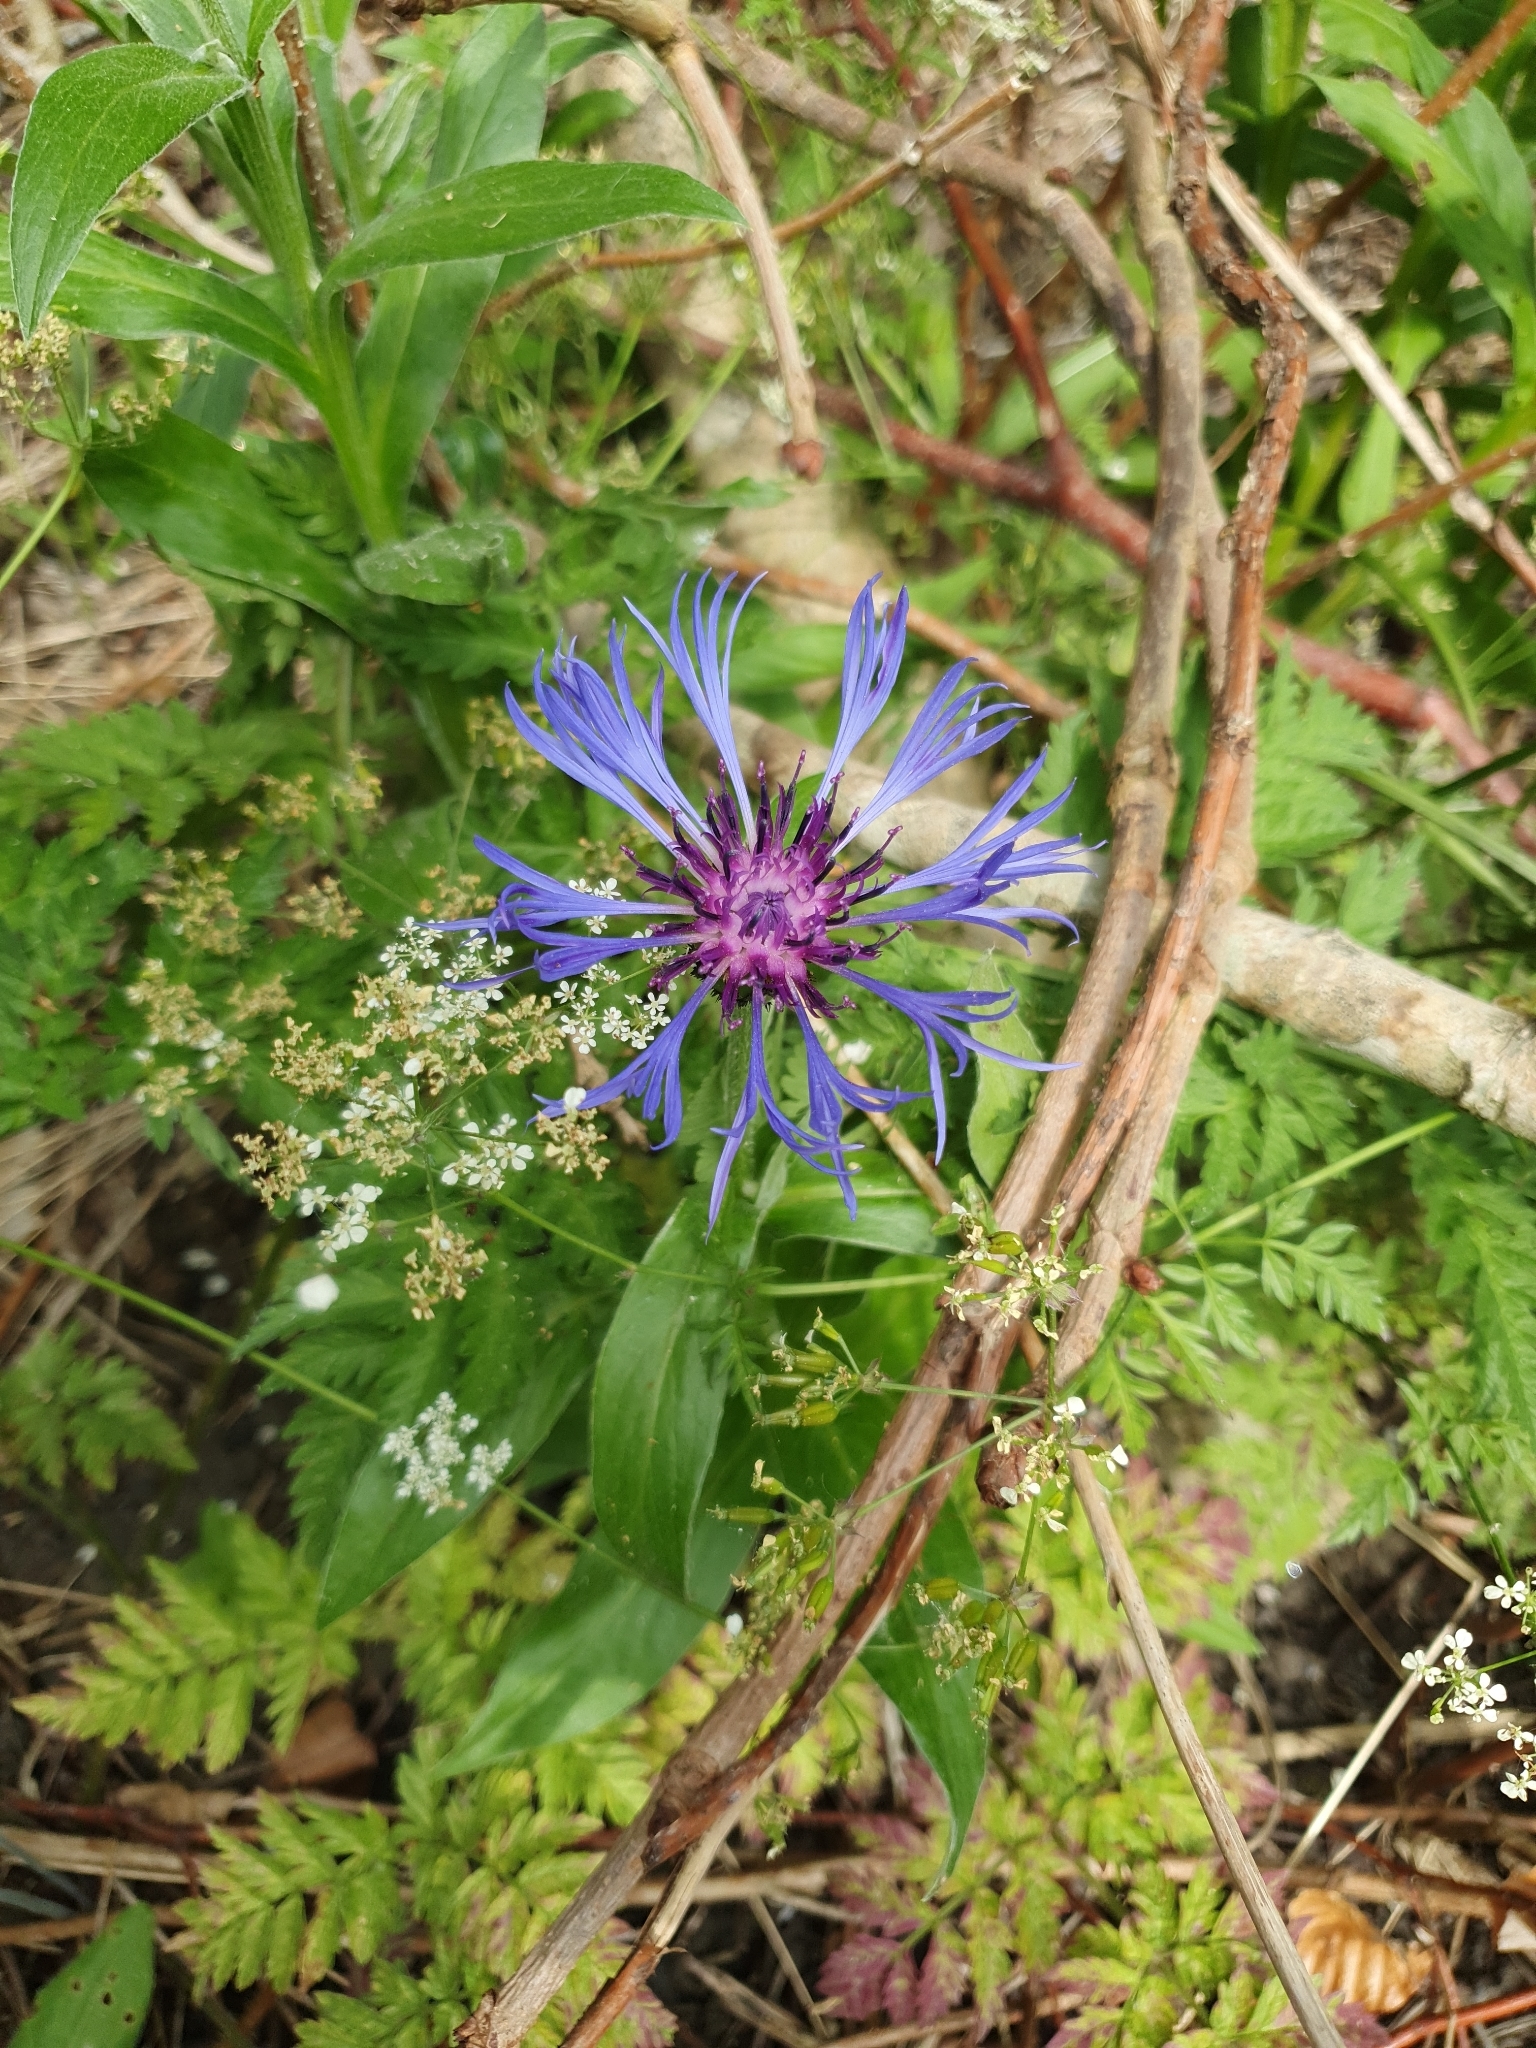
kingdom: Plantae
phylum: Tracheophyta
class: Magnoliopsida
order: Asterales
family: Asteraceae
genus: Centaurea
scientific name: Centaurea montana
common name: Perennial cornflower
